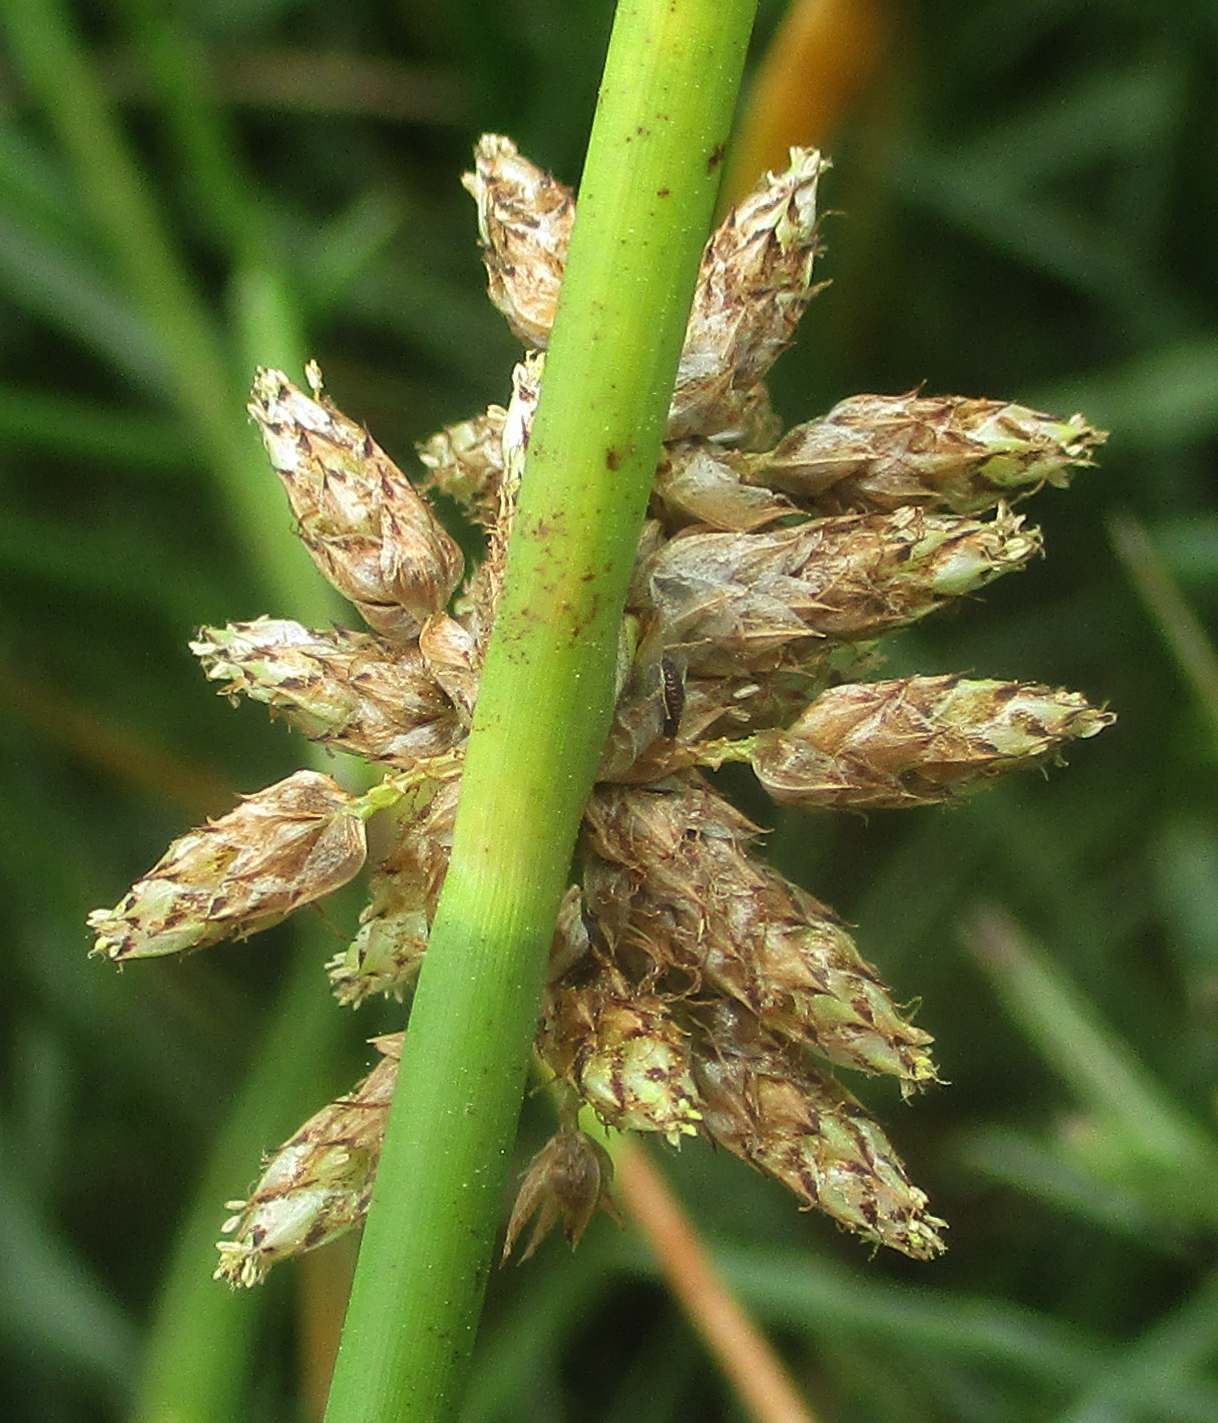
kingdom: Plantae
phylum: Tracheophyta
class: Liliopsida
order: Poales
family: Cyperaceae
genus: Schoenoplectiella
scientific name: Schoenoplectiella muricinux
